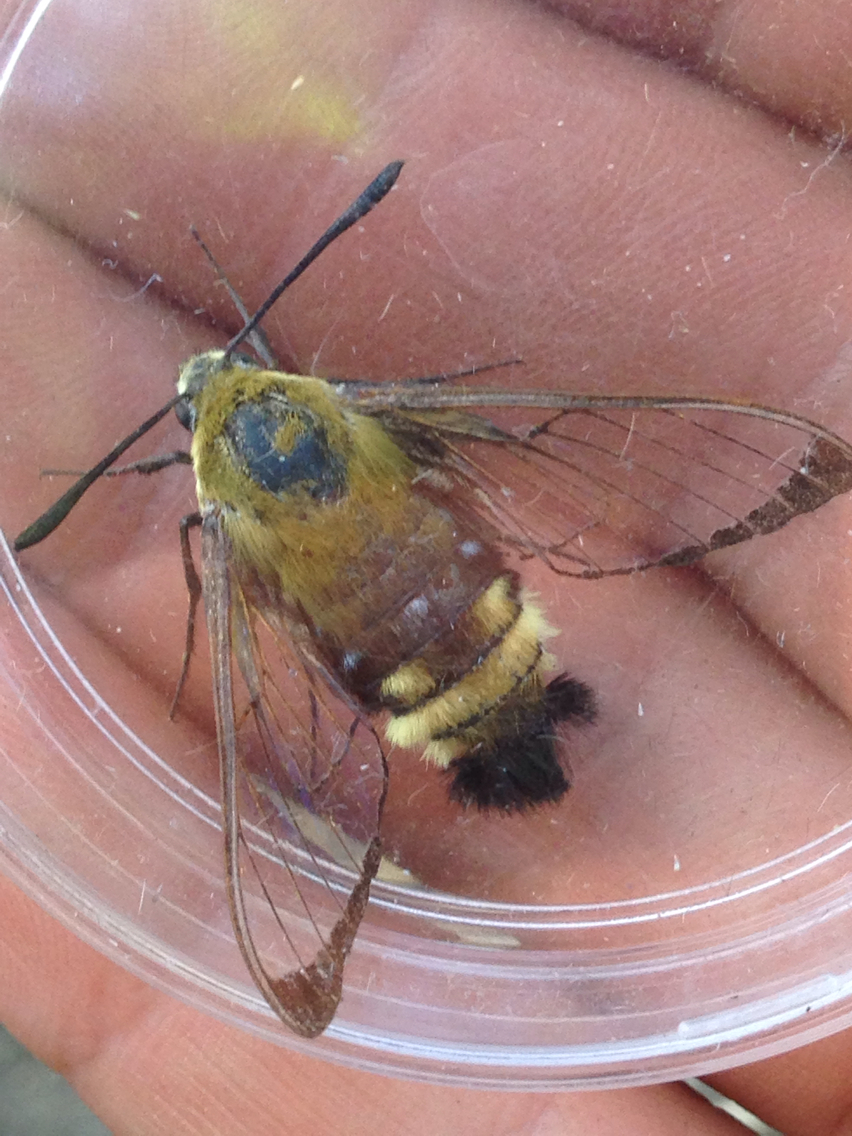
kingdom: Animalia
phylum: Arthropoda
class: Insecta
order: Lepidoptera
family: Sphingidae
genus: Hemaris
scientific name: Hemaris thetis
